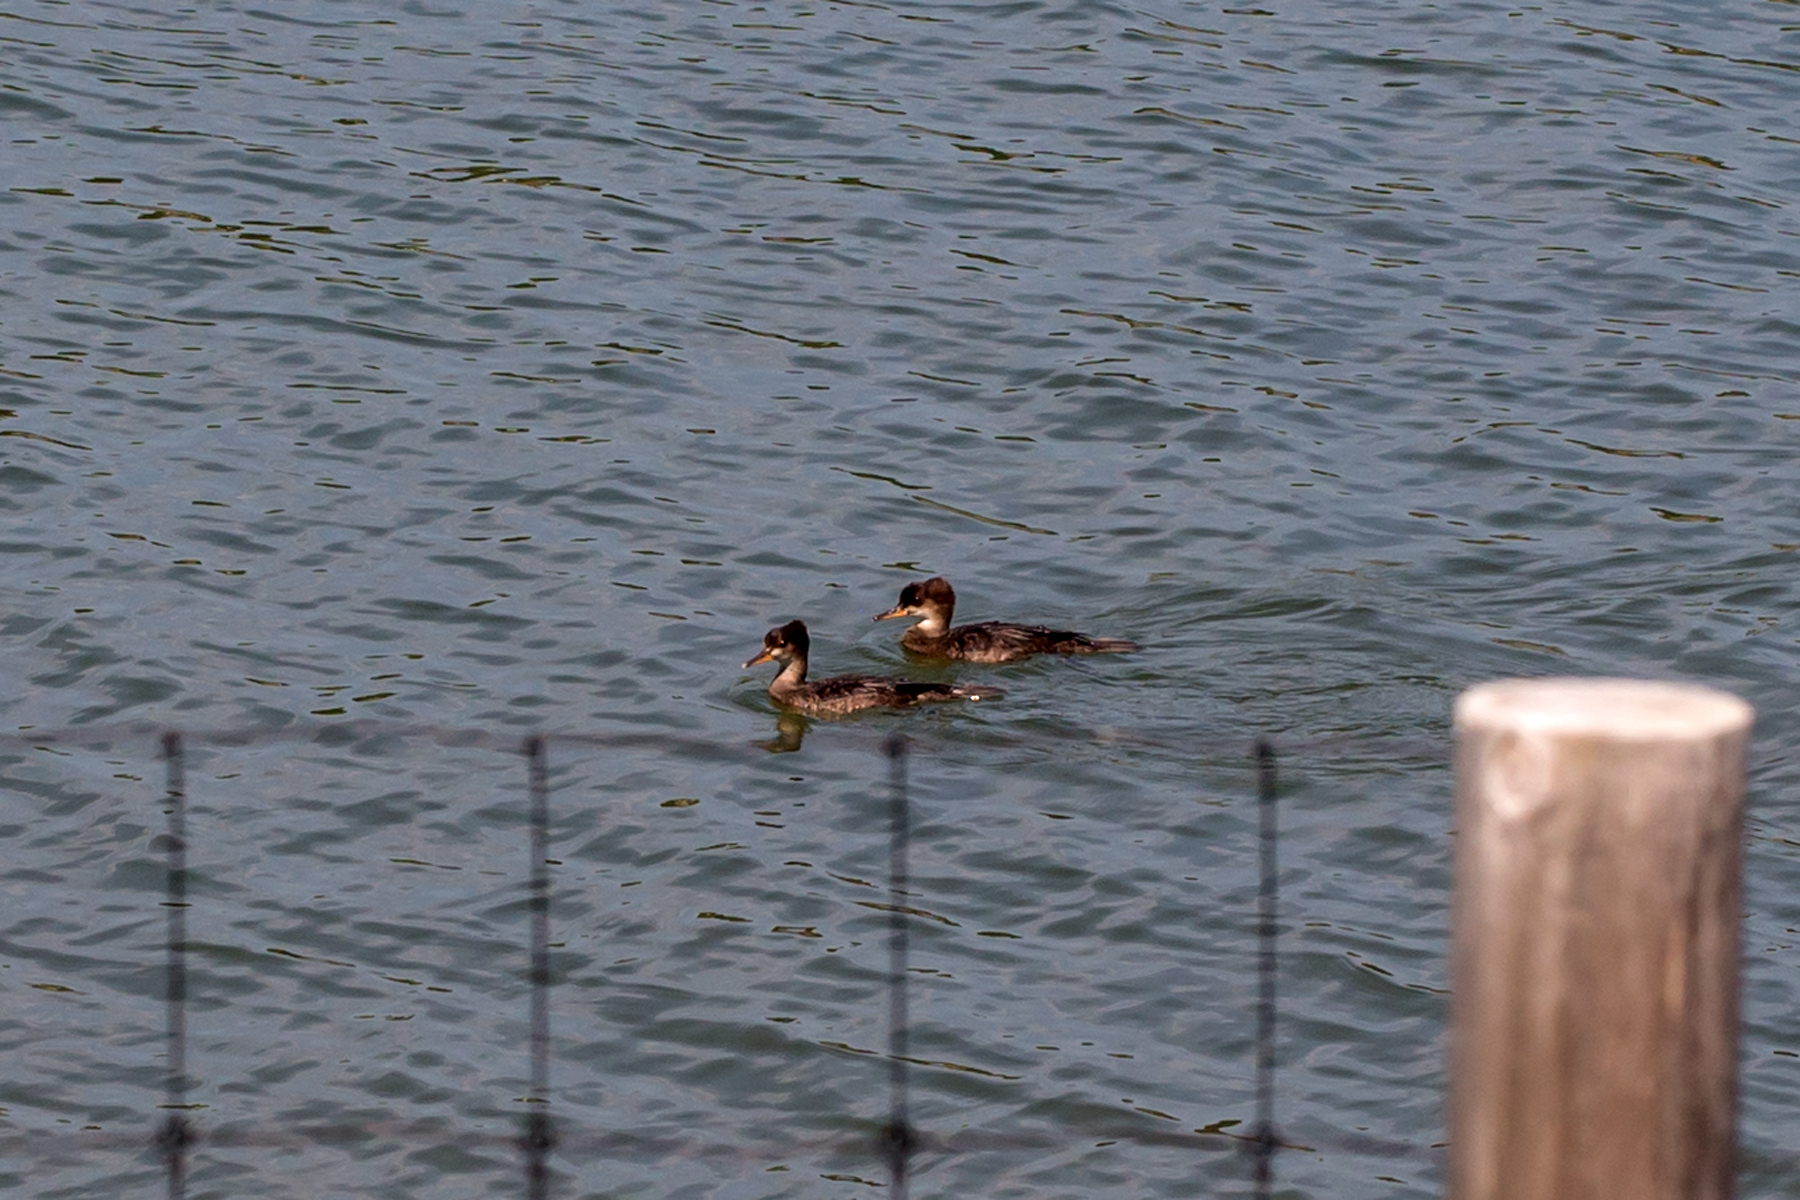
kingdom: Animalia
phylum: Chordata
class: Aves
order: Anseriformes
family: Anatidae
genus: Lophodytes
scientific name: Lophodytes cucullatus
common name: Hooded merganser
